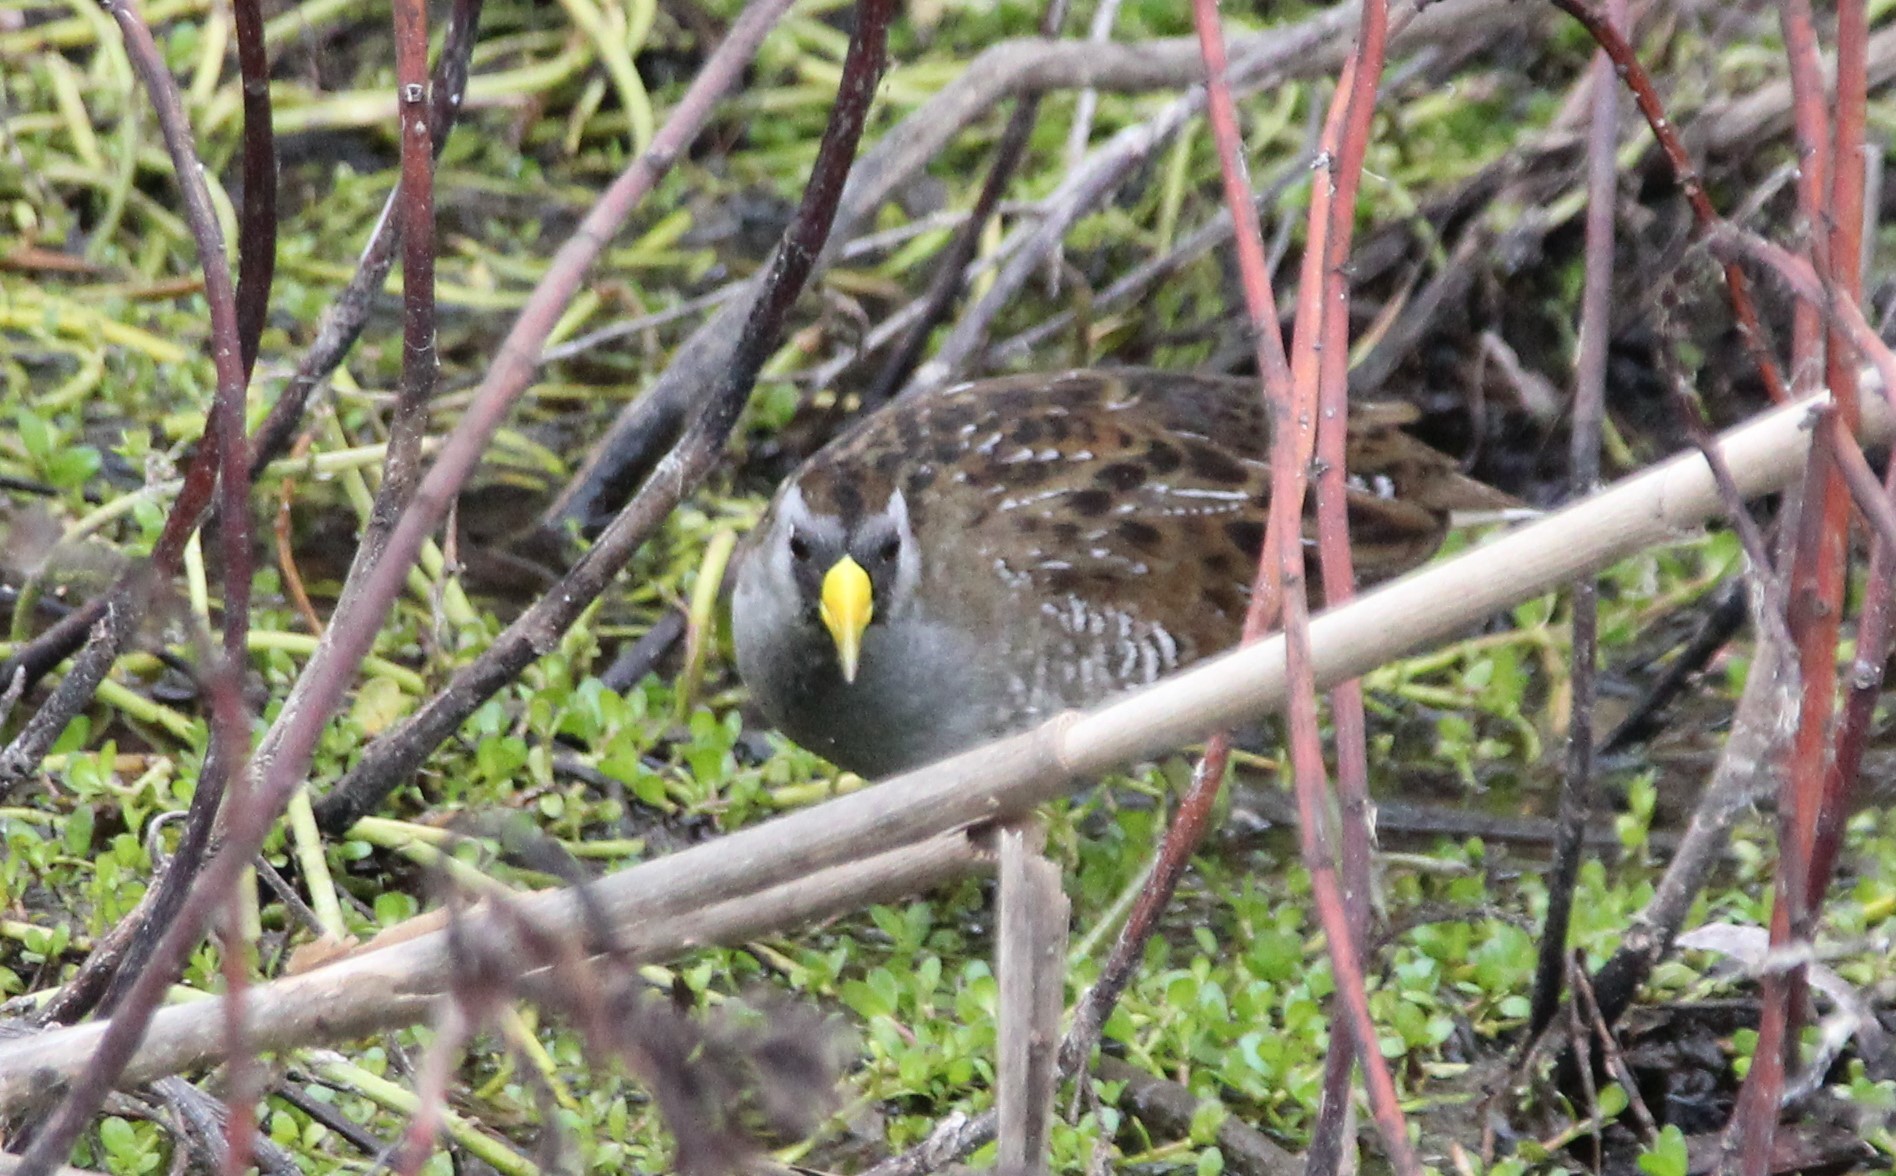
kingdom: Animalia
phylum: Chordata
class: Aves
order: Gruiformes
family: Rallidae
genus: Porzana
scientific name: Porzana carolina
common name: Sora
